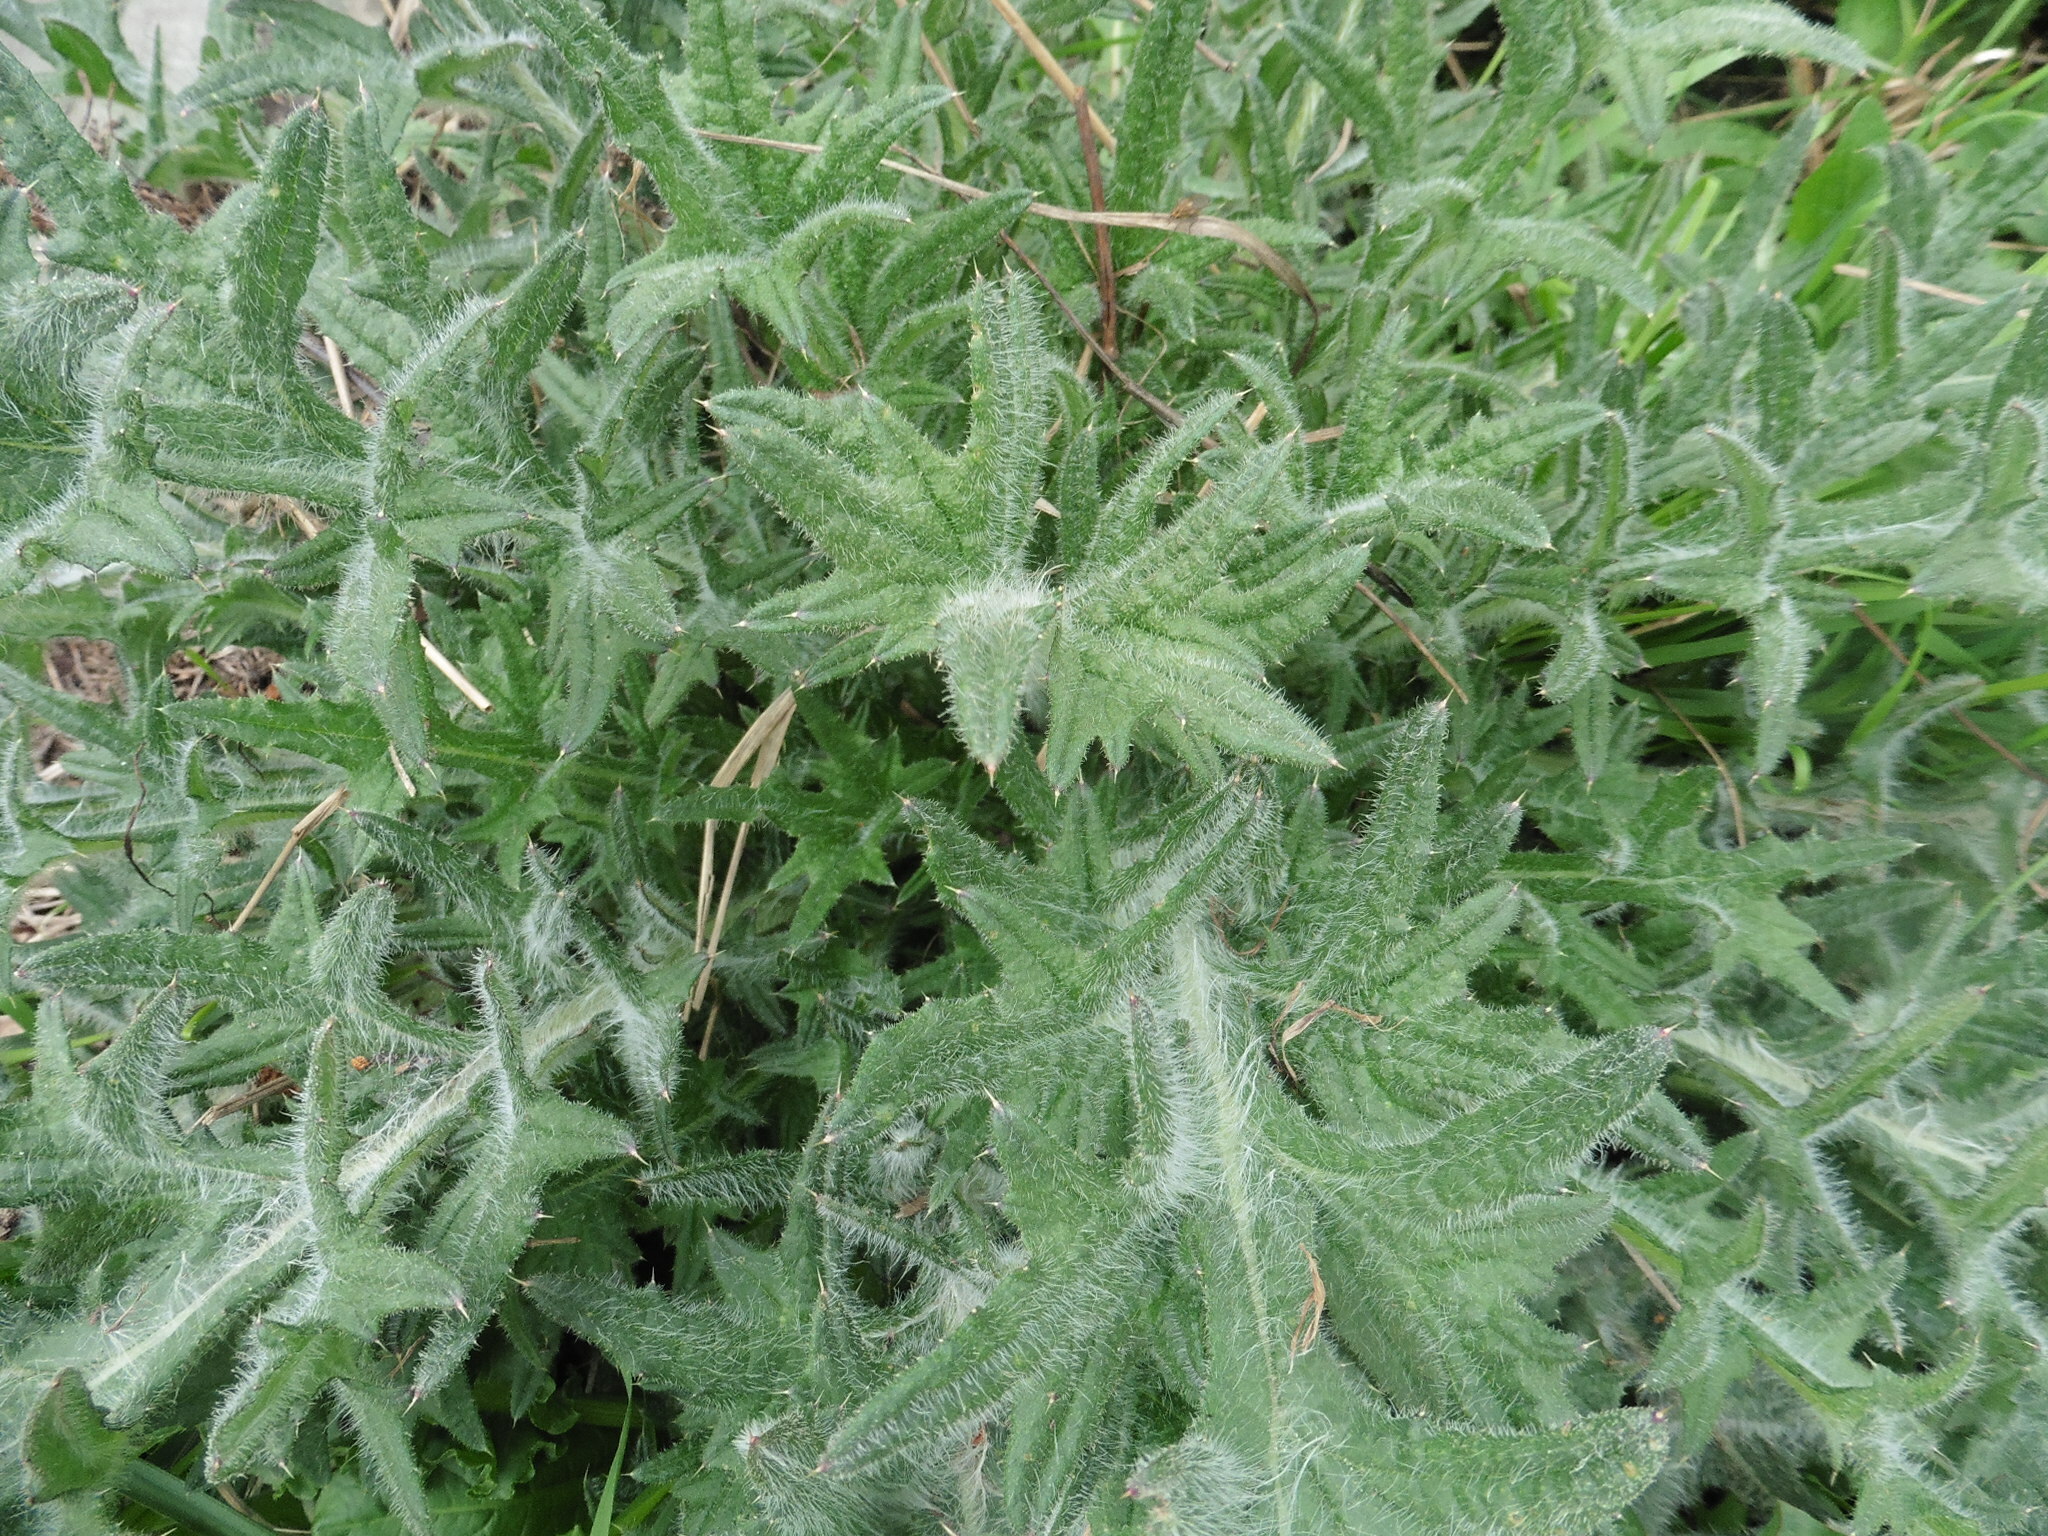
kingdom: Plantae
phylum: Tracheophyta
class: Magnoliopsida
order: Asterales
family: Asteraceae
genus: Cirsium
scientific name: Cirsium vulgare
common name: Bull thistle
